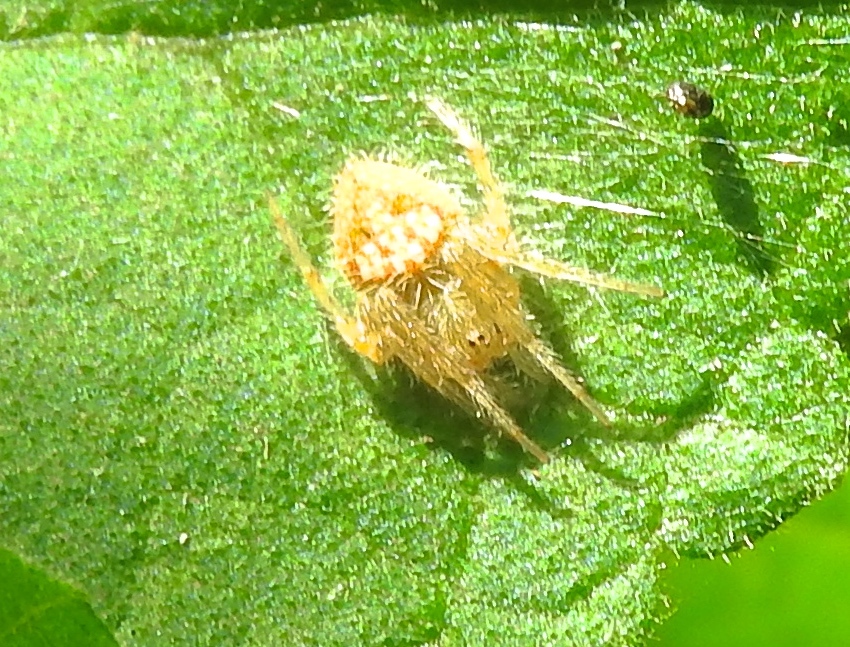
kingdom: Animalia
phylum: Arthropoda
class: Arachnida
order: Araneae
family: Araneidae
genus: Eriophora
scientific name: Eriophora
